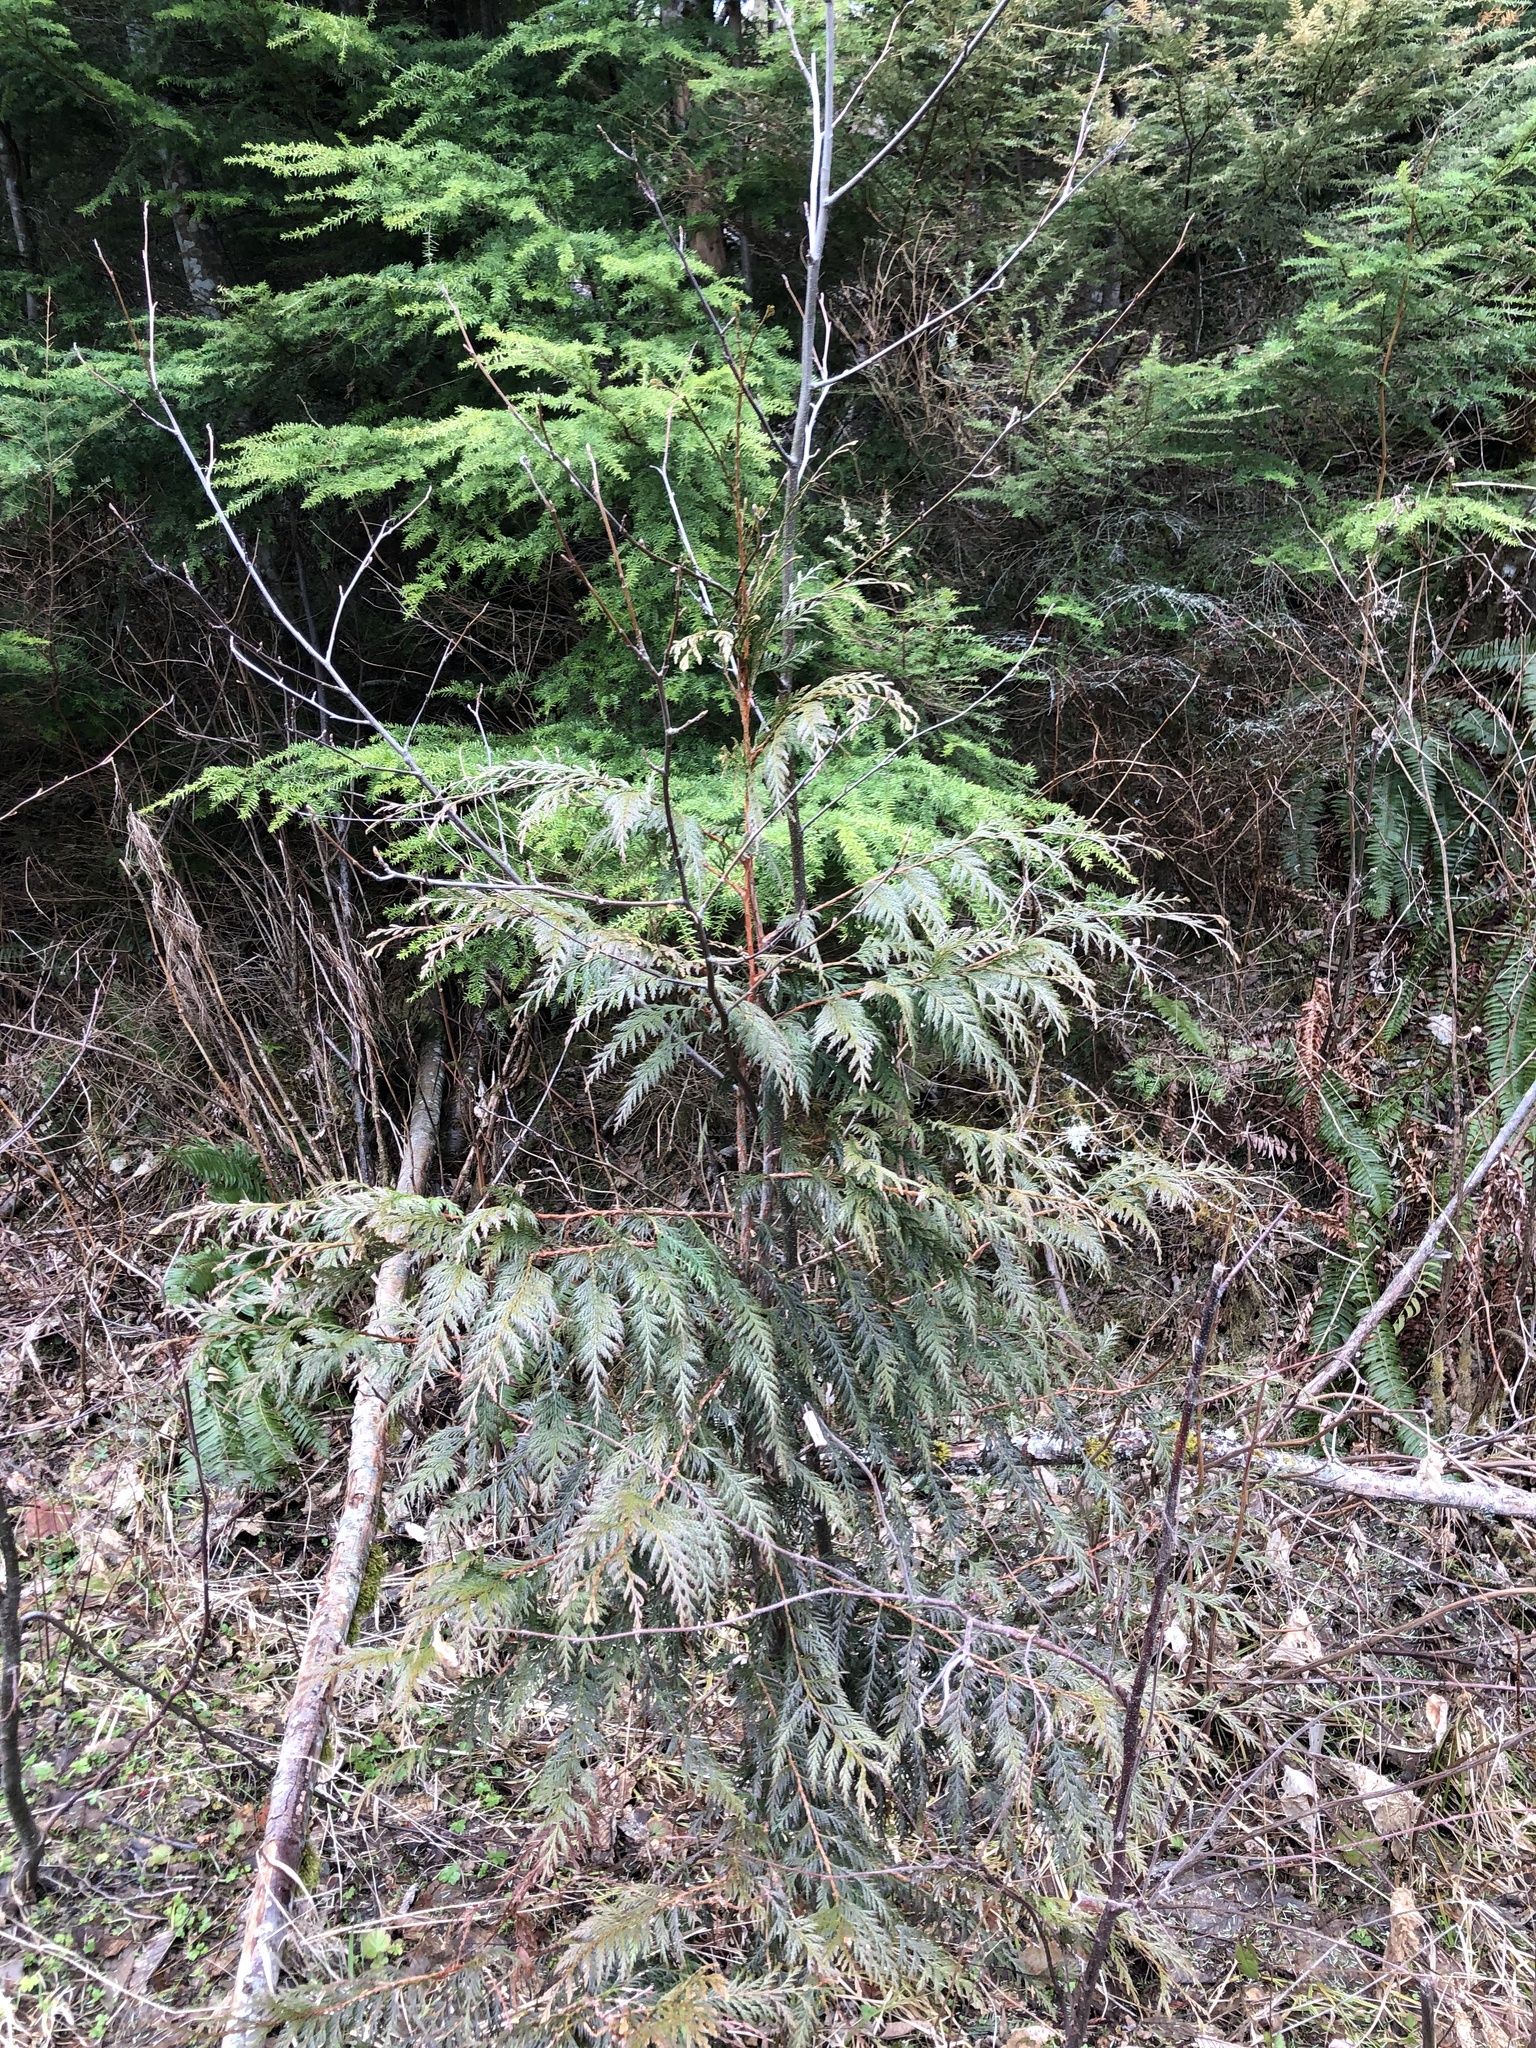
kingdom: Plantae
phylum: Tracheophyta
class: Pinopsida
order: Pinales
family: Cupressaceae
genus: Thuja
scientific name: Thuja plicata
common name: Western red-cedar
